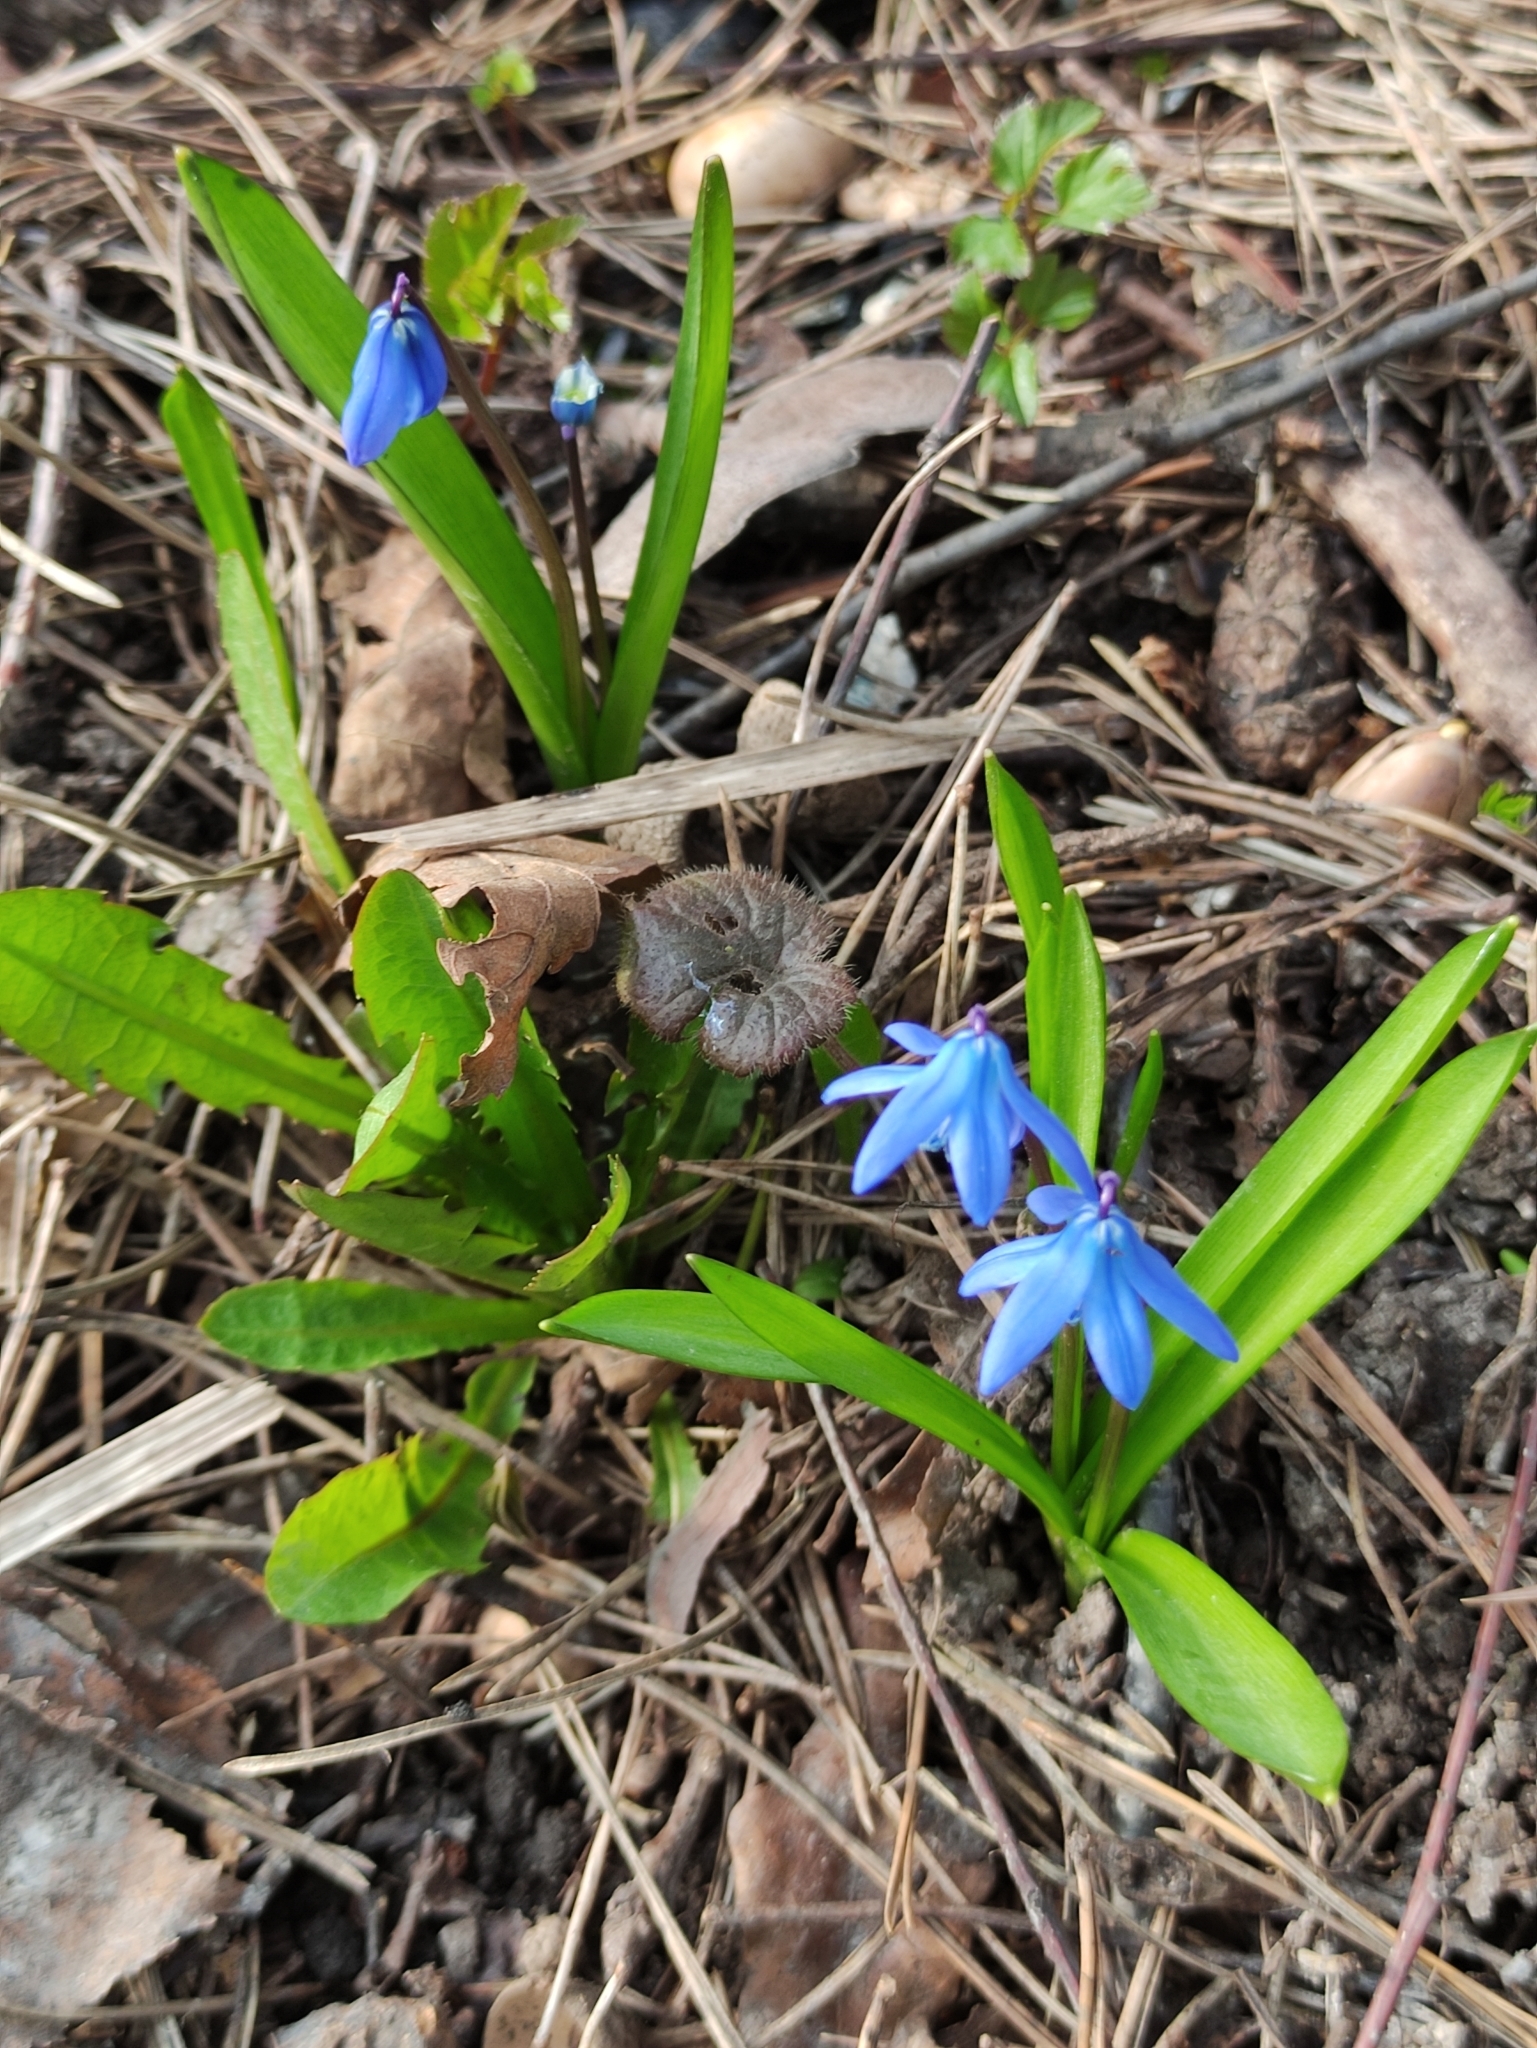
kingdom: Plantae
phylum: Tracheophyta
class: Liliopsida
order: Asparagales
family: Asparagaceae
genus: Scilla
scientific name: Scilla siberica
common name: Siberian squill
